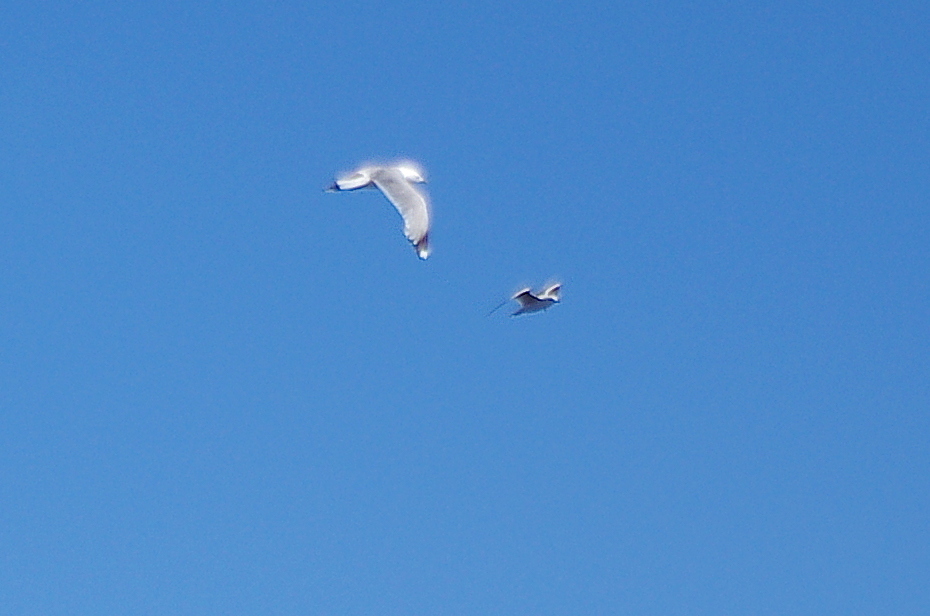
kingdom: Animalia
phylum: Chordata
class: Aves
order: Charadriiformes
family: Laridae
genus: Larus
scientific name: Larus canus
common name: Mew gull
